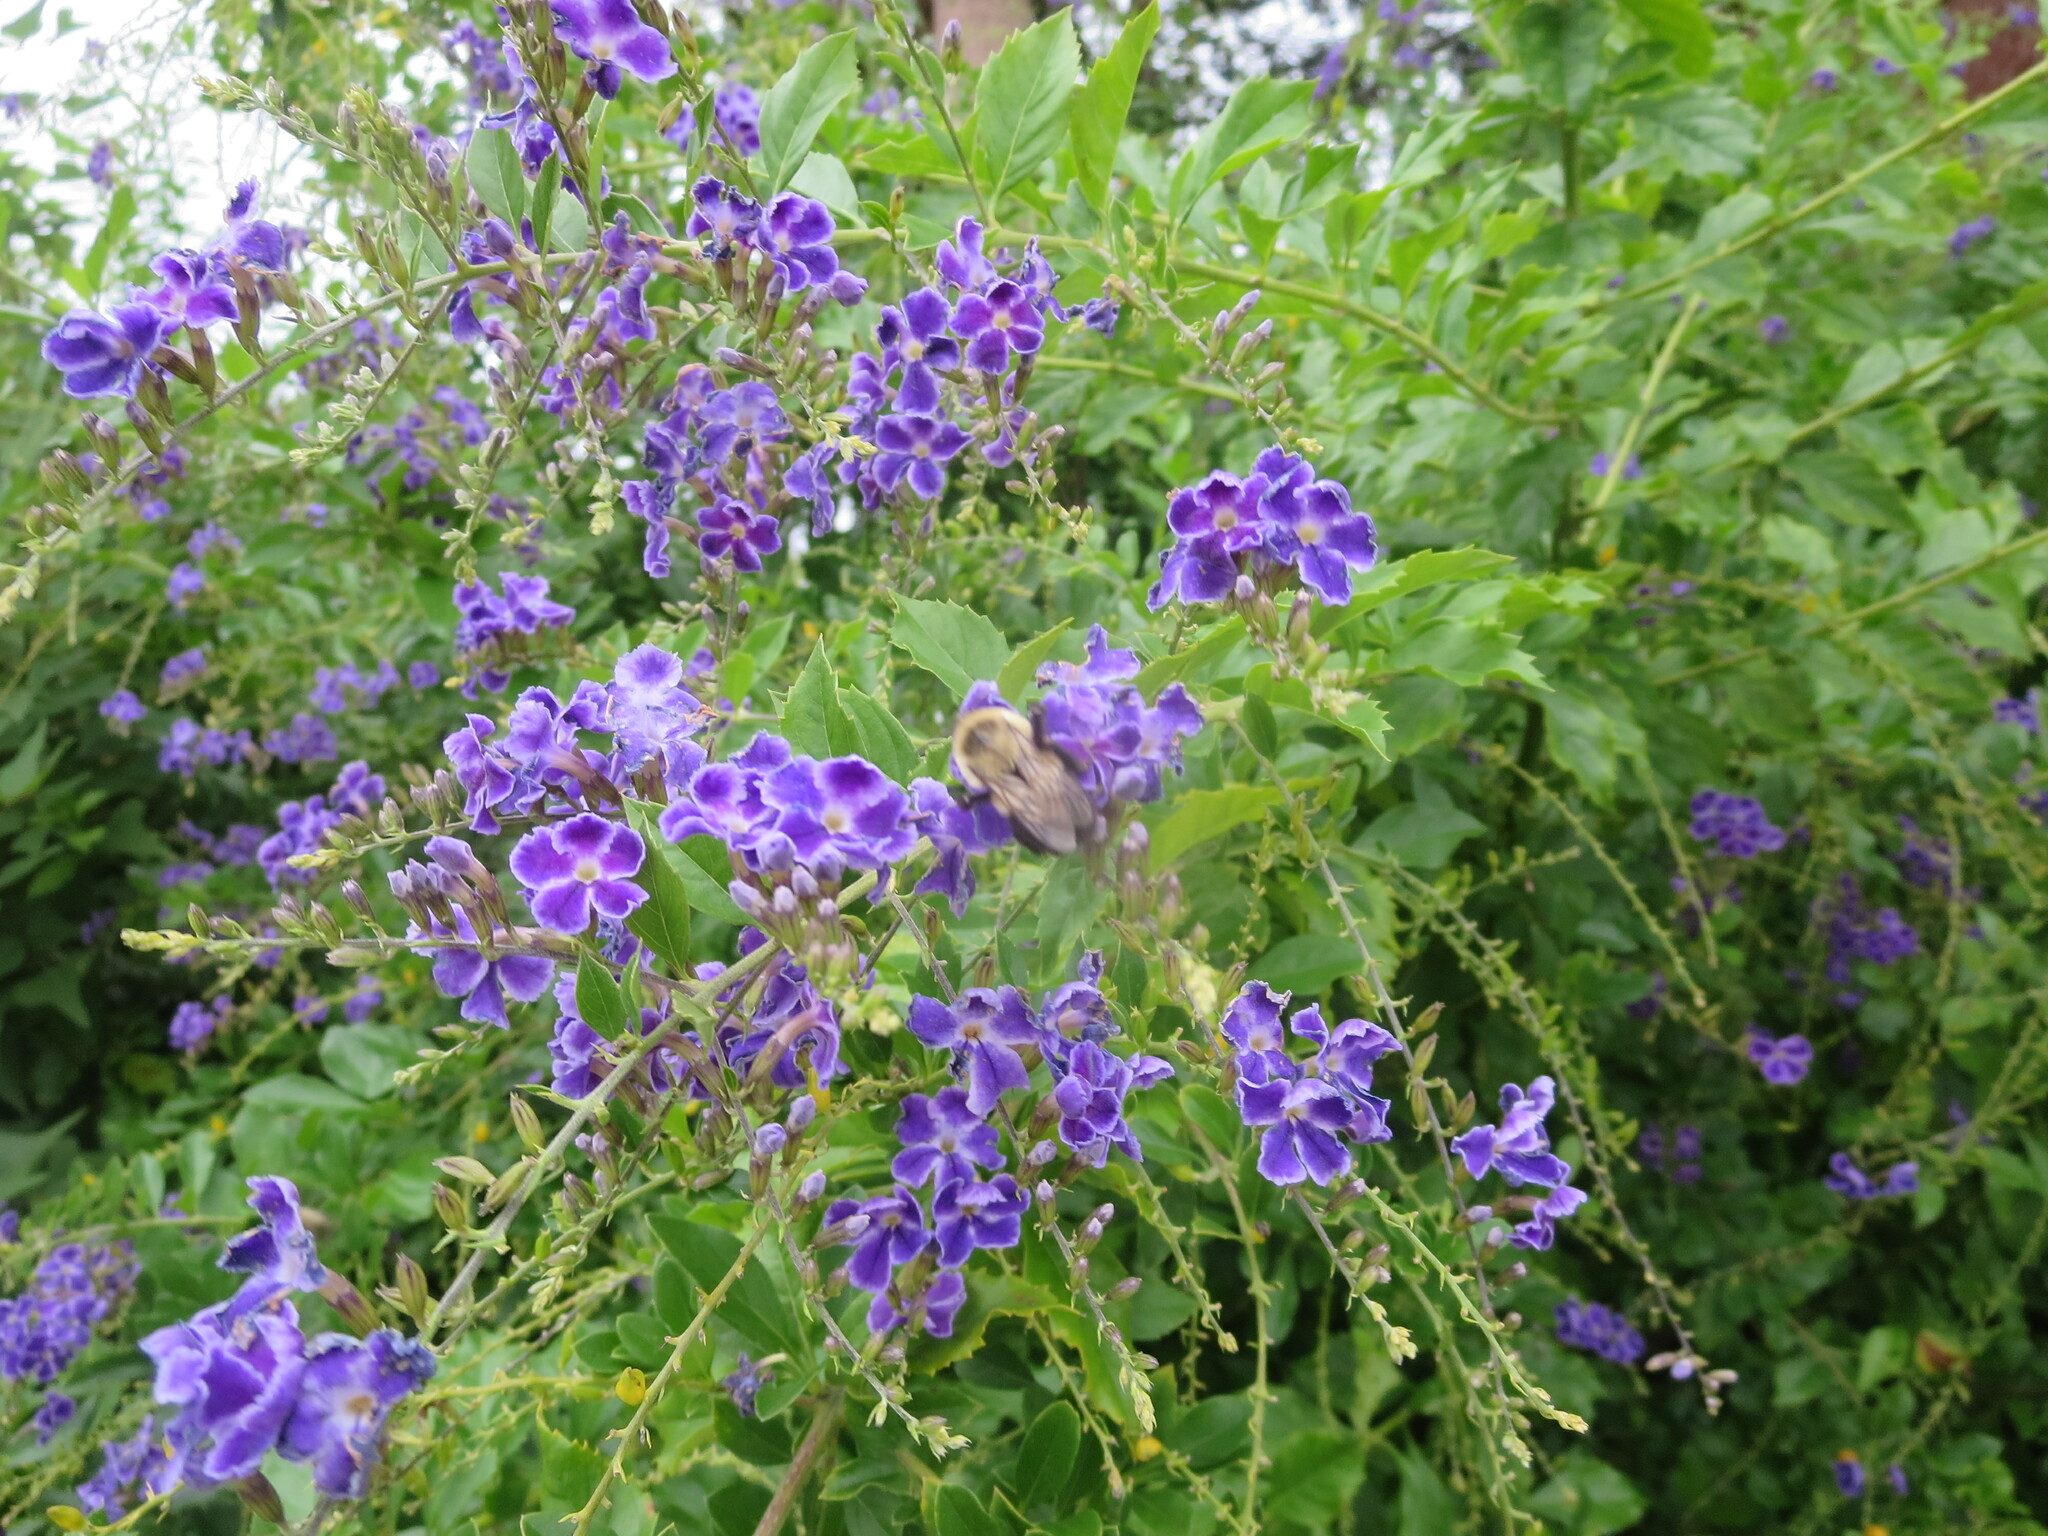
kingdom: Animalia
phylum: Arthropoda
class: Insecta
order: Hymenoptera
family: Apidae
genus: Bombus
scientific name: Bombus impatiens
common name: Common eastern bumble bee
